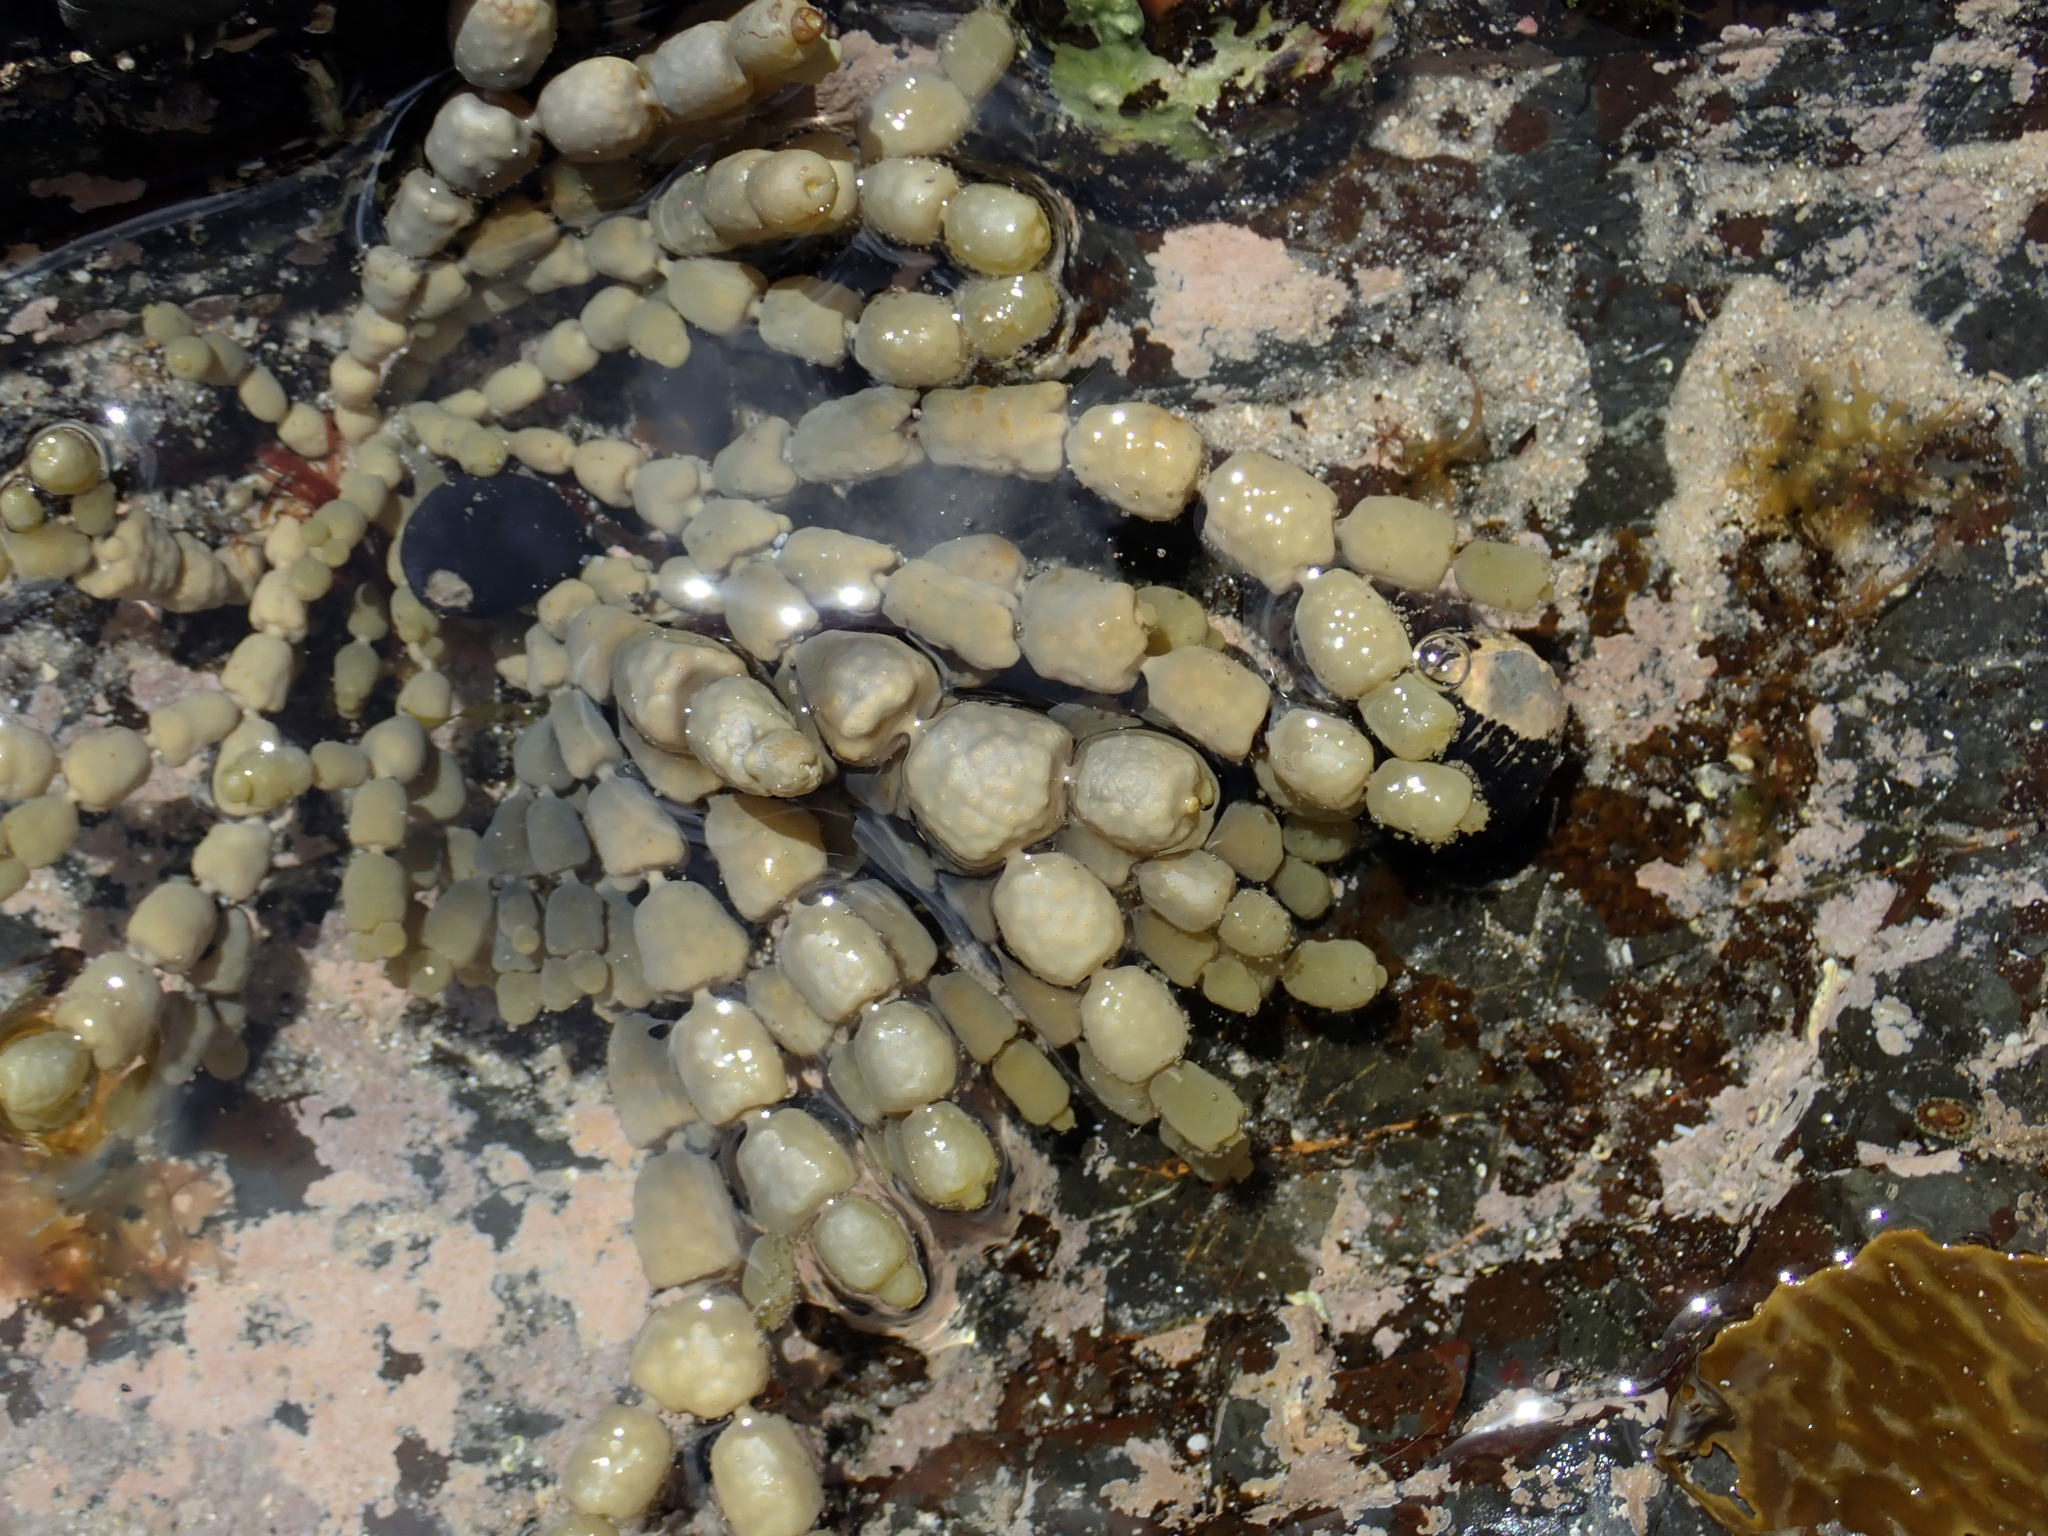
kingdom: Chromista
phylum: Ochrophyta
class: Phaeophyceae
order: Fucales
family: Hormosiraceae
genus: Hormosira
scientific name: Hormosira banksii
